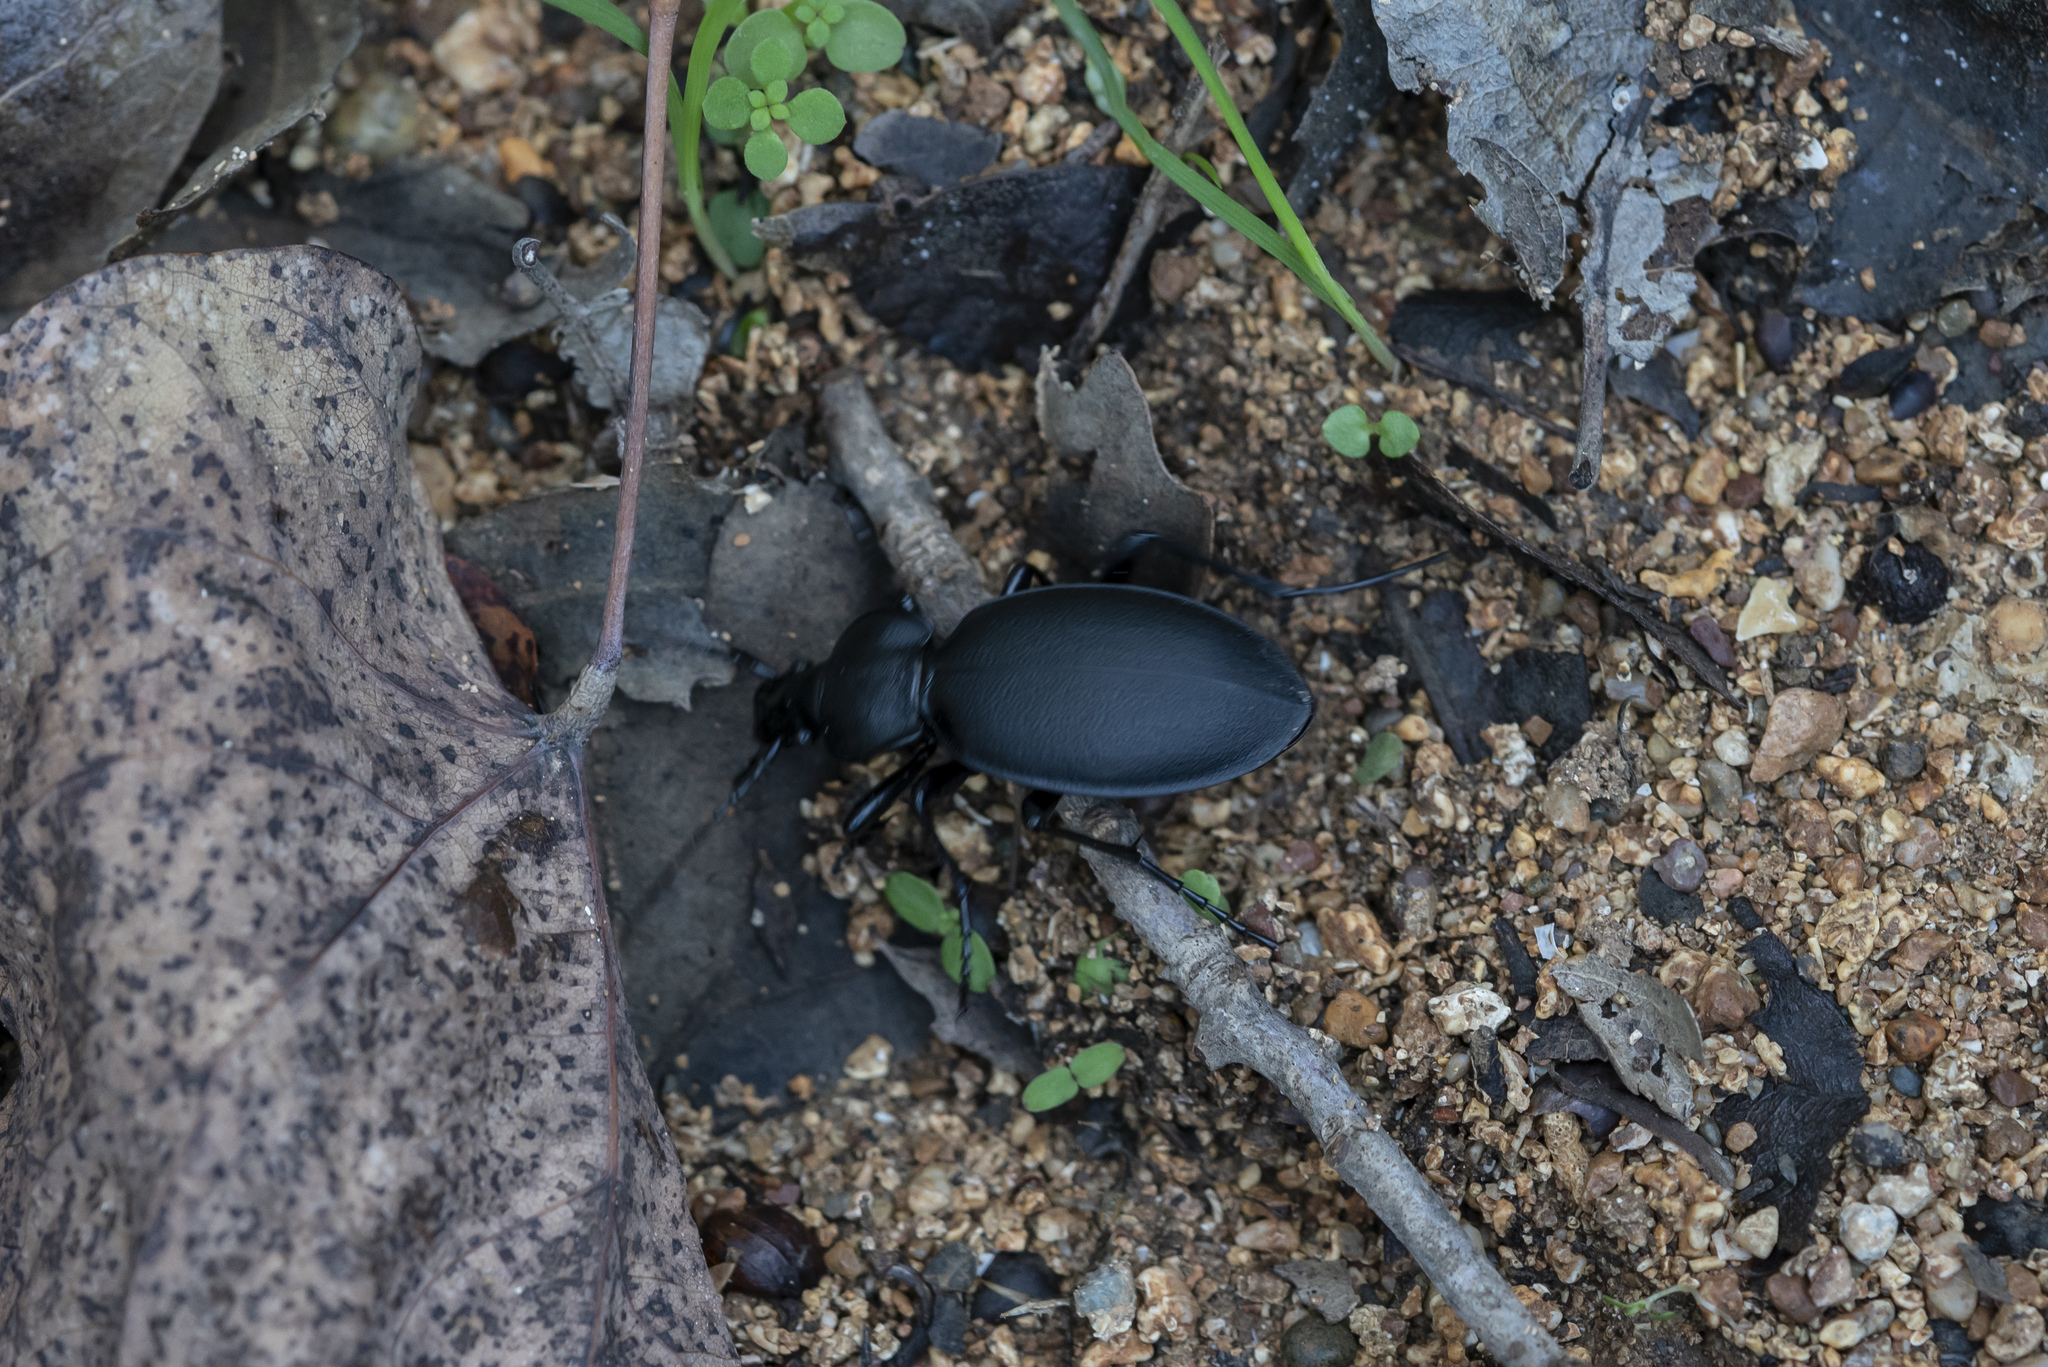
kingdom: Animalia
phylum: Arthropoda
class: Insecta
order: Coleoptera
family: Carabidae
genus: Carabus
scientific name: Carabus coriaceus
